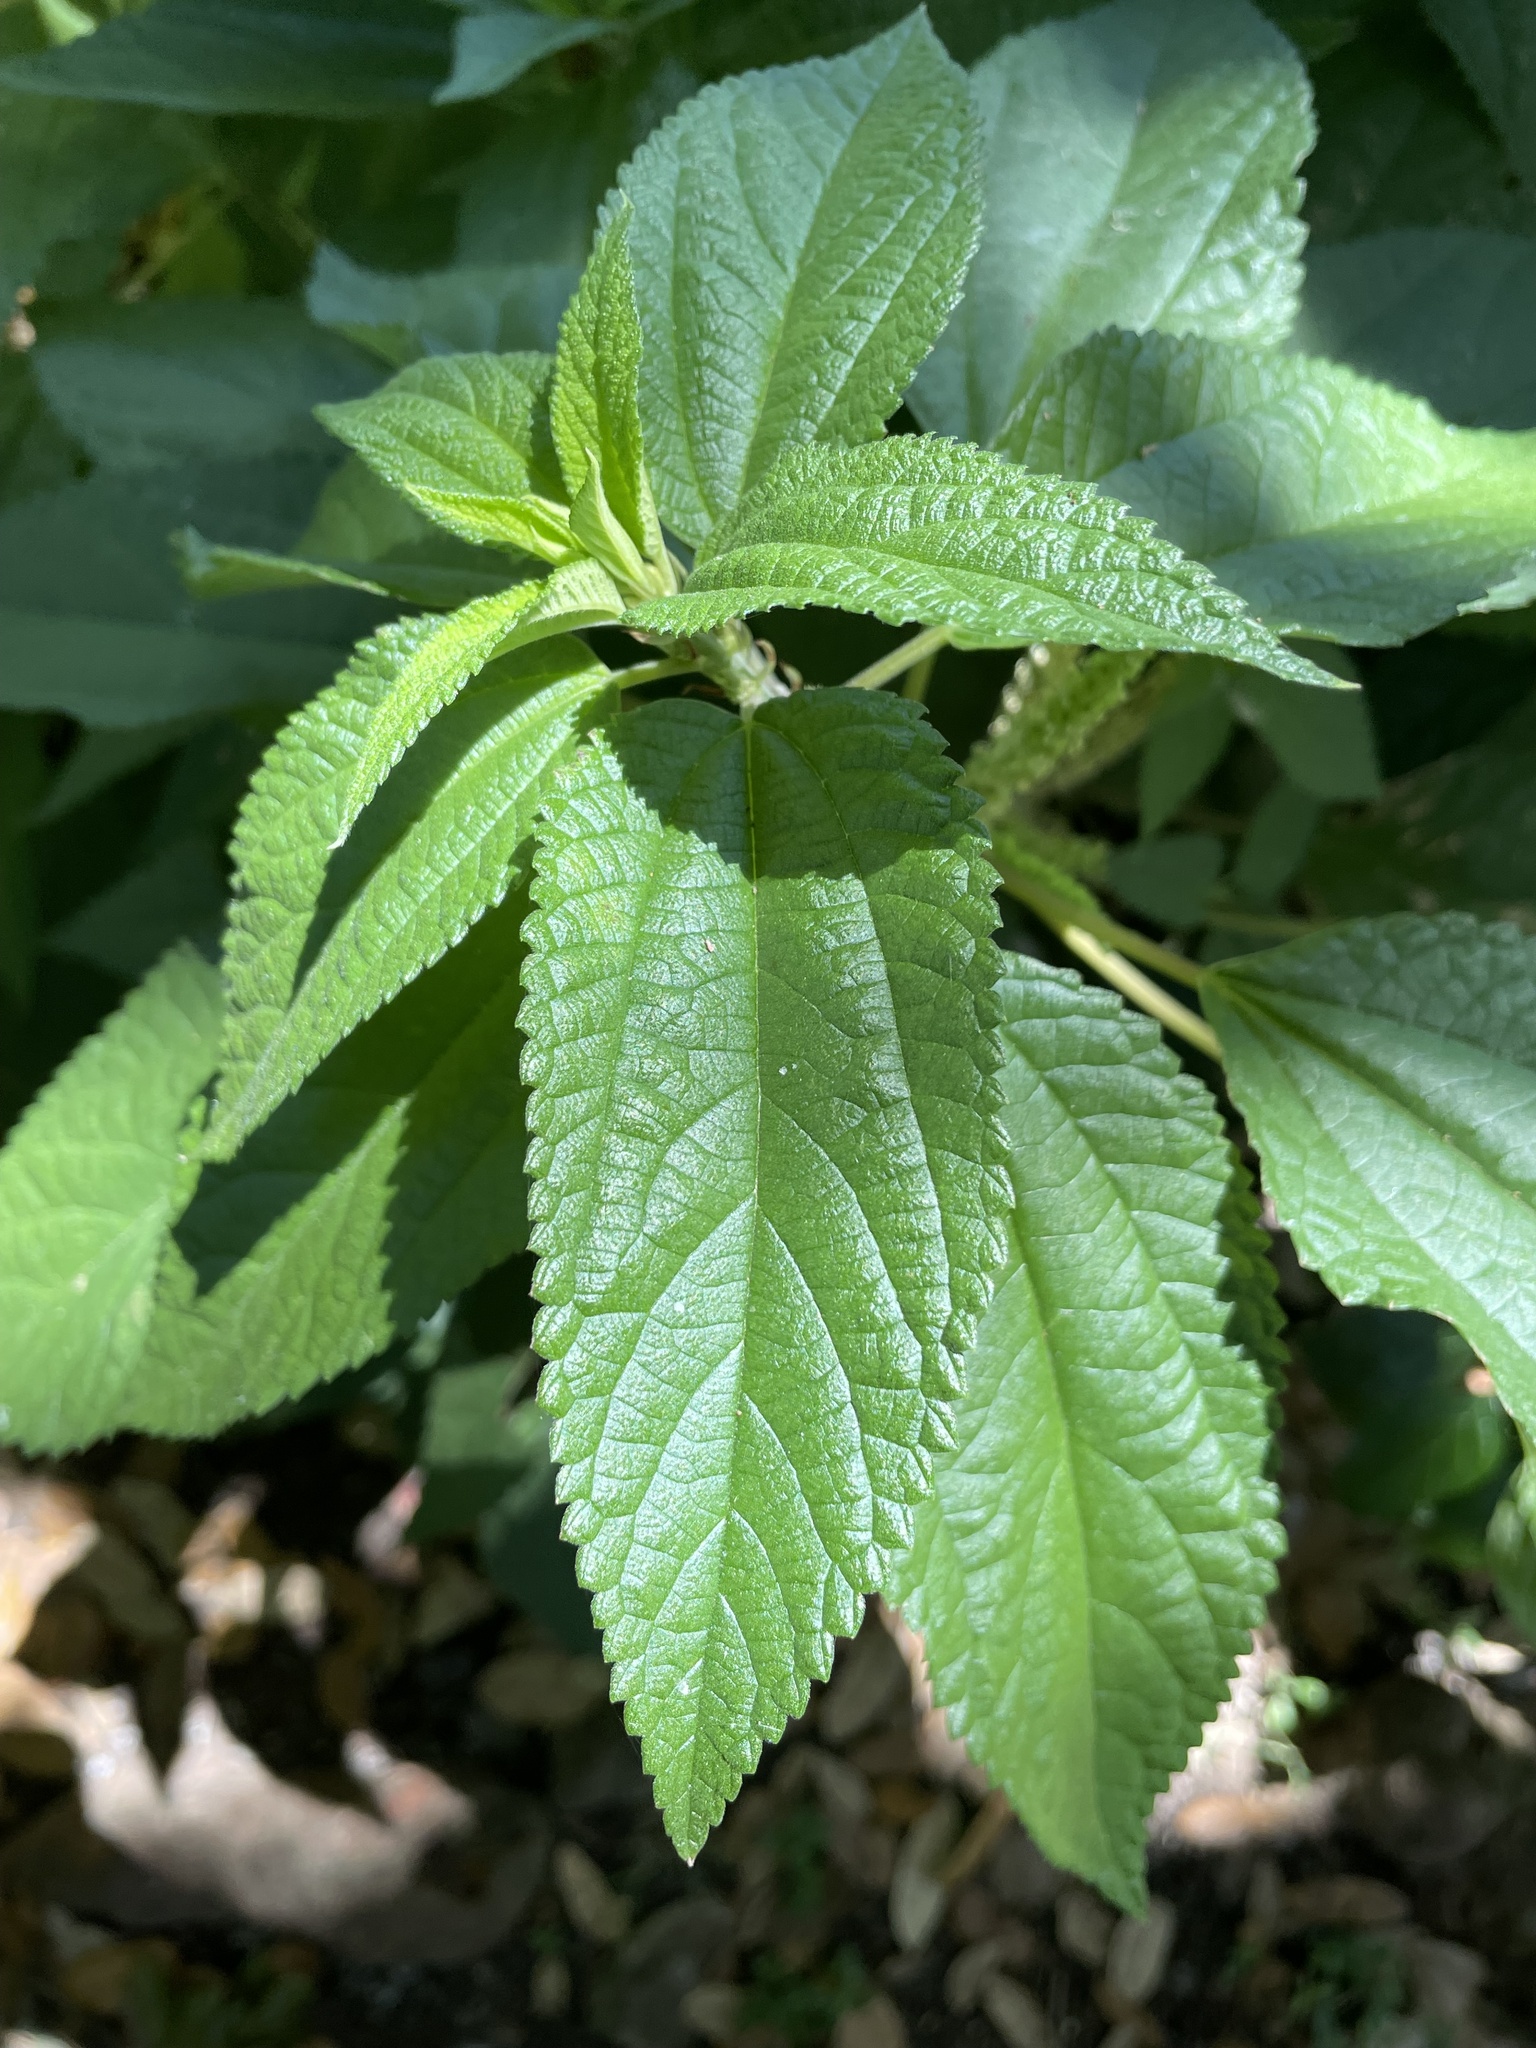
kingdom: Plantae
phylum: Tracheophyta
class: Magnoliopsida
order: Rosales
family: Urticaceae
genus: Boehmeria
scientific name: Boehmeria cylindrica
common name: Bog-hemp
